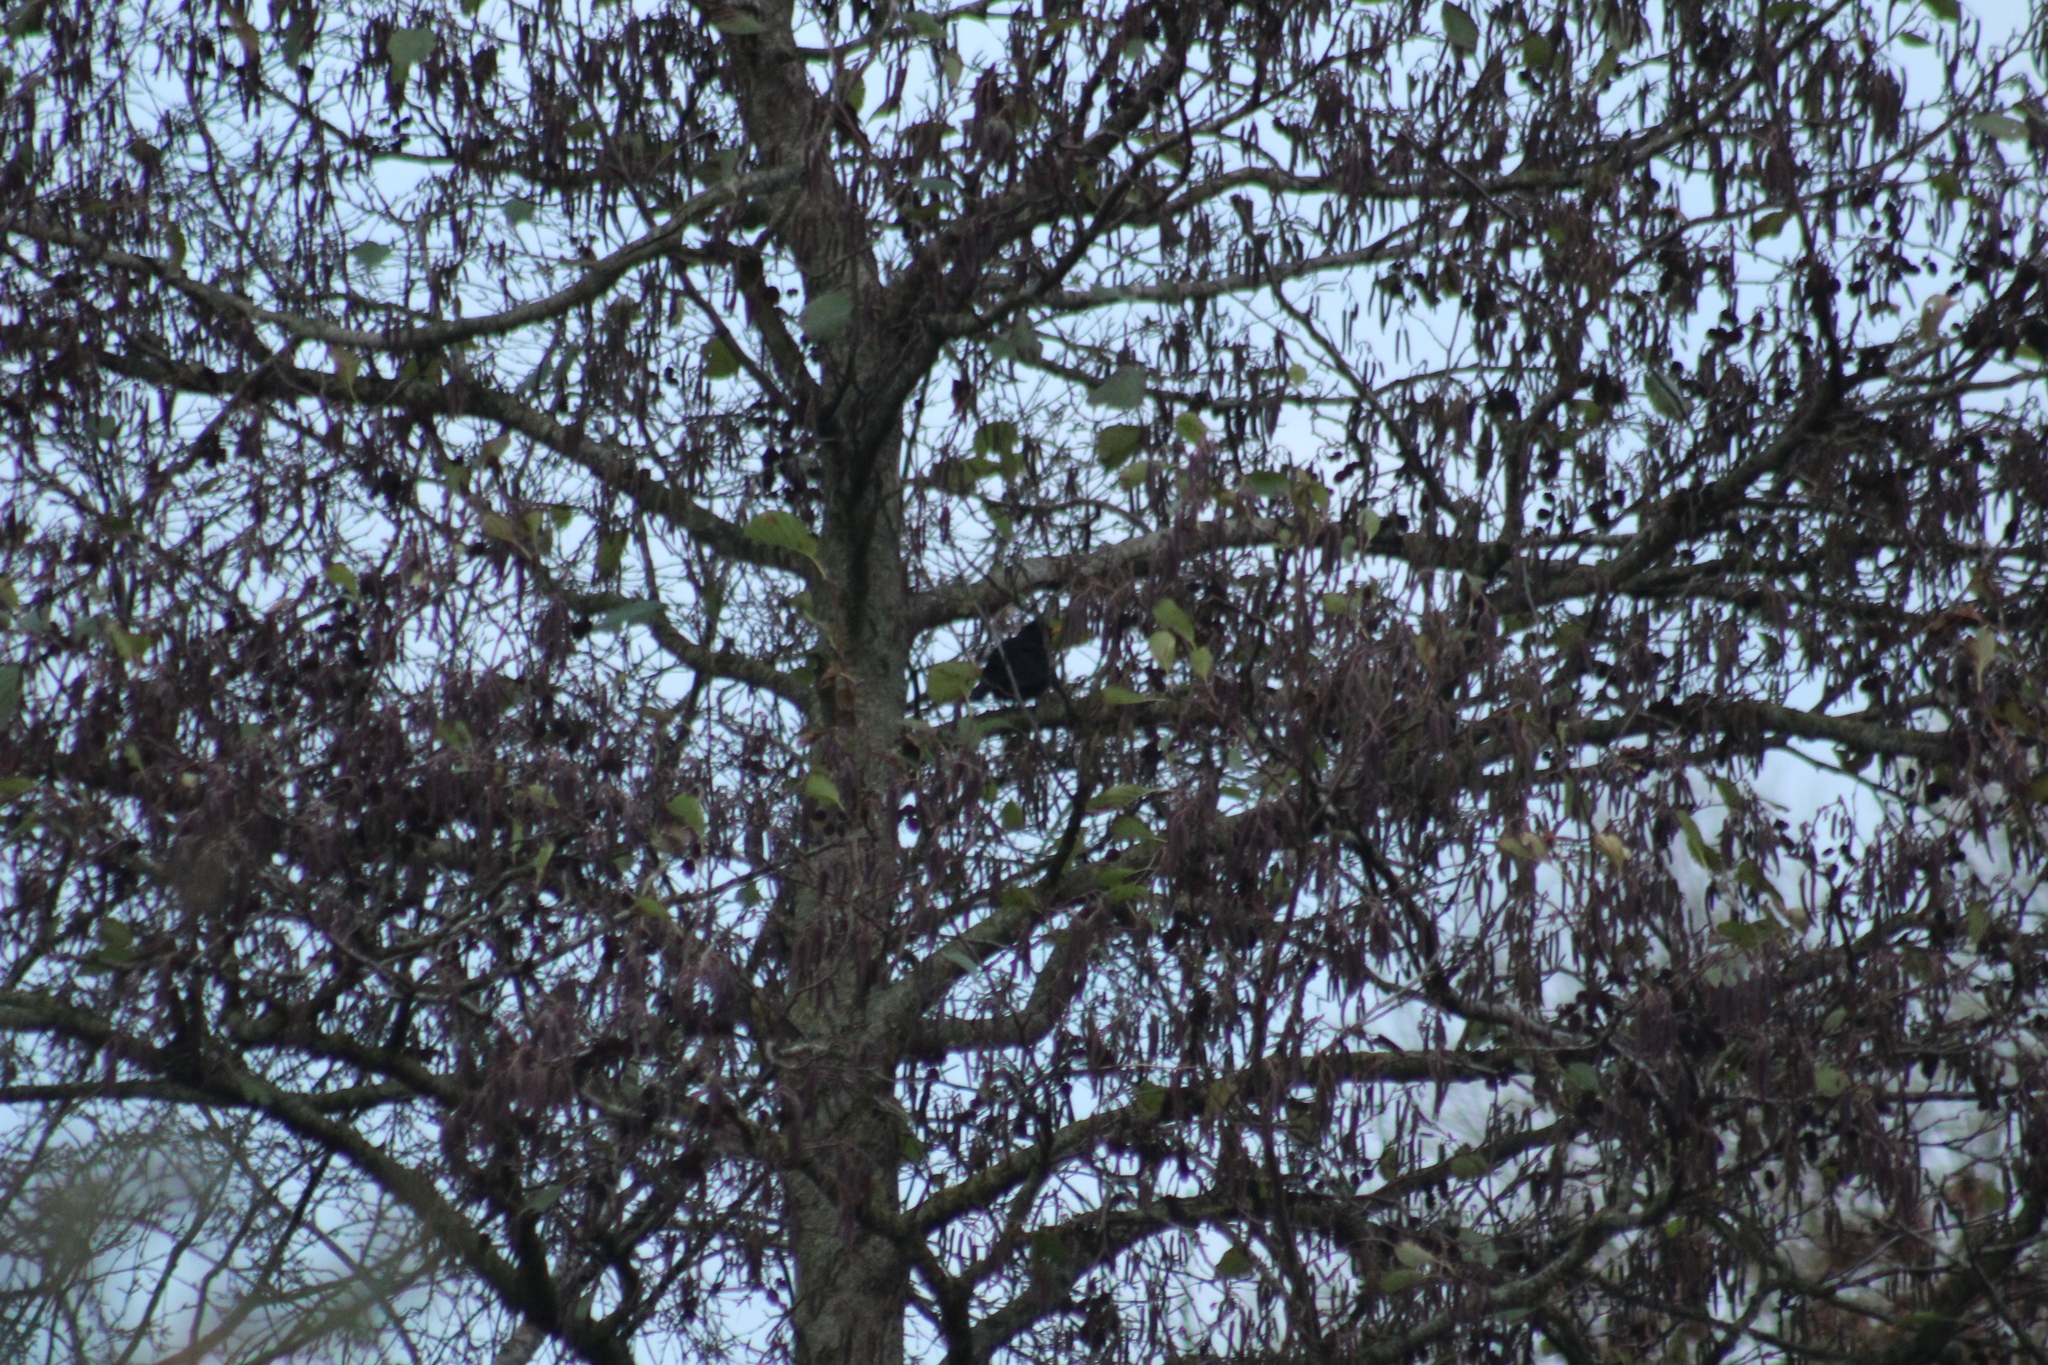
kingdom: Animalia
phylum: Chordata
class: Aves
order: Passeriformes
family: Turdidae
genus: Turdus
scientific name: Turdus merula
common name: Common blackbird
